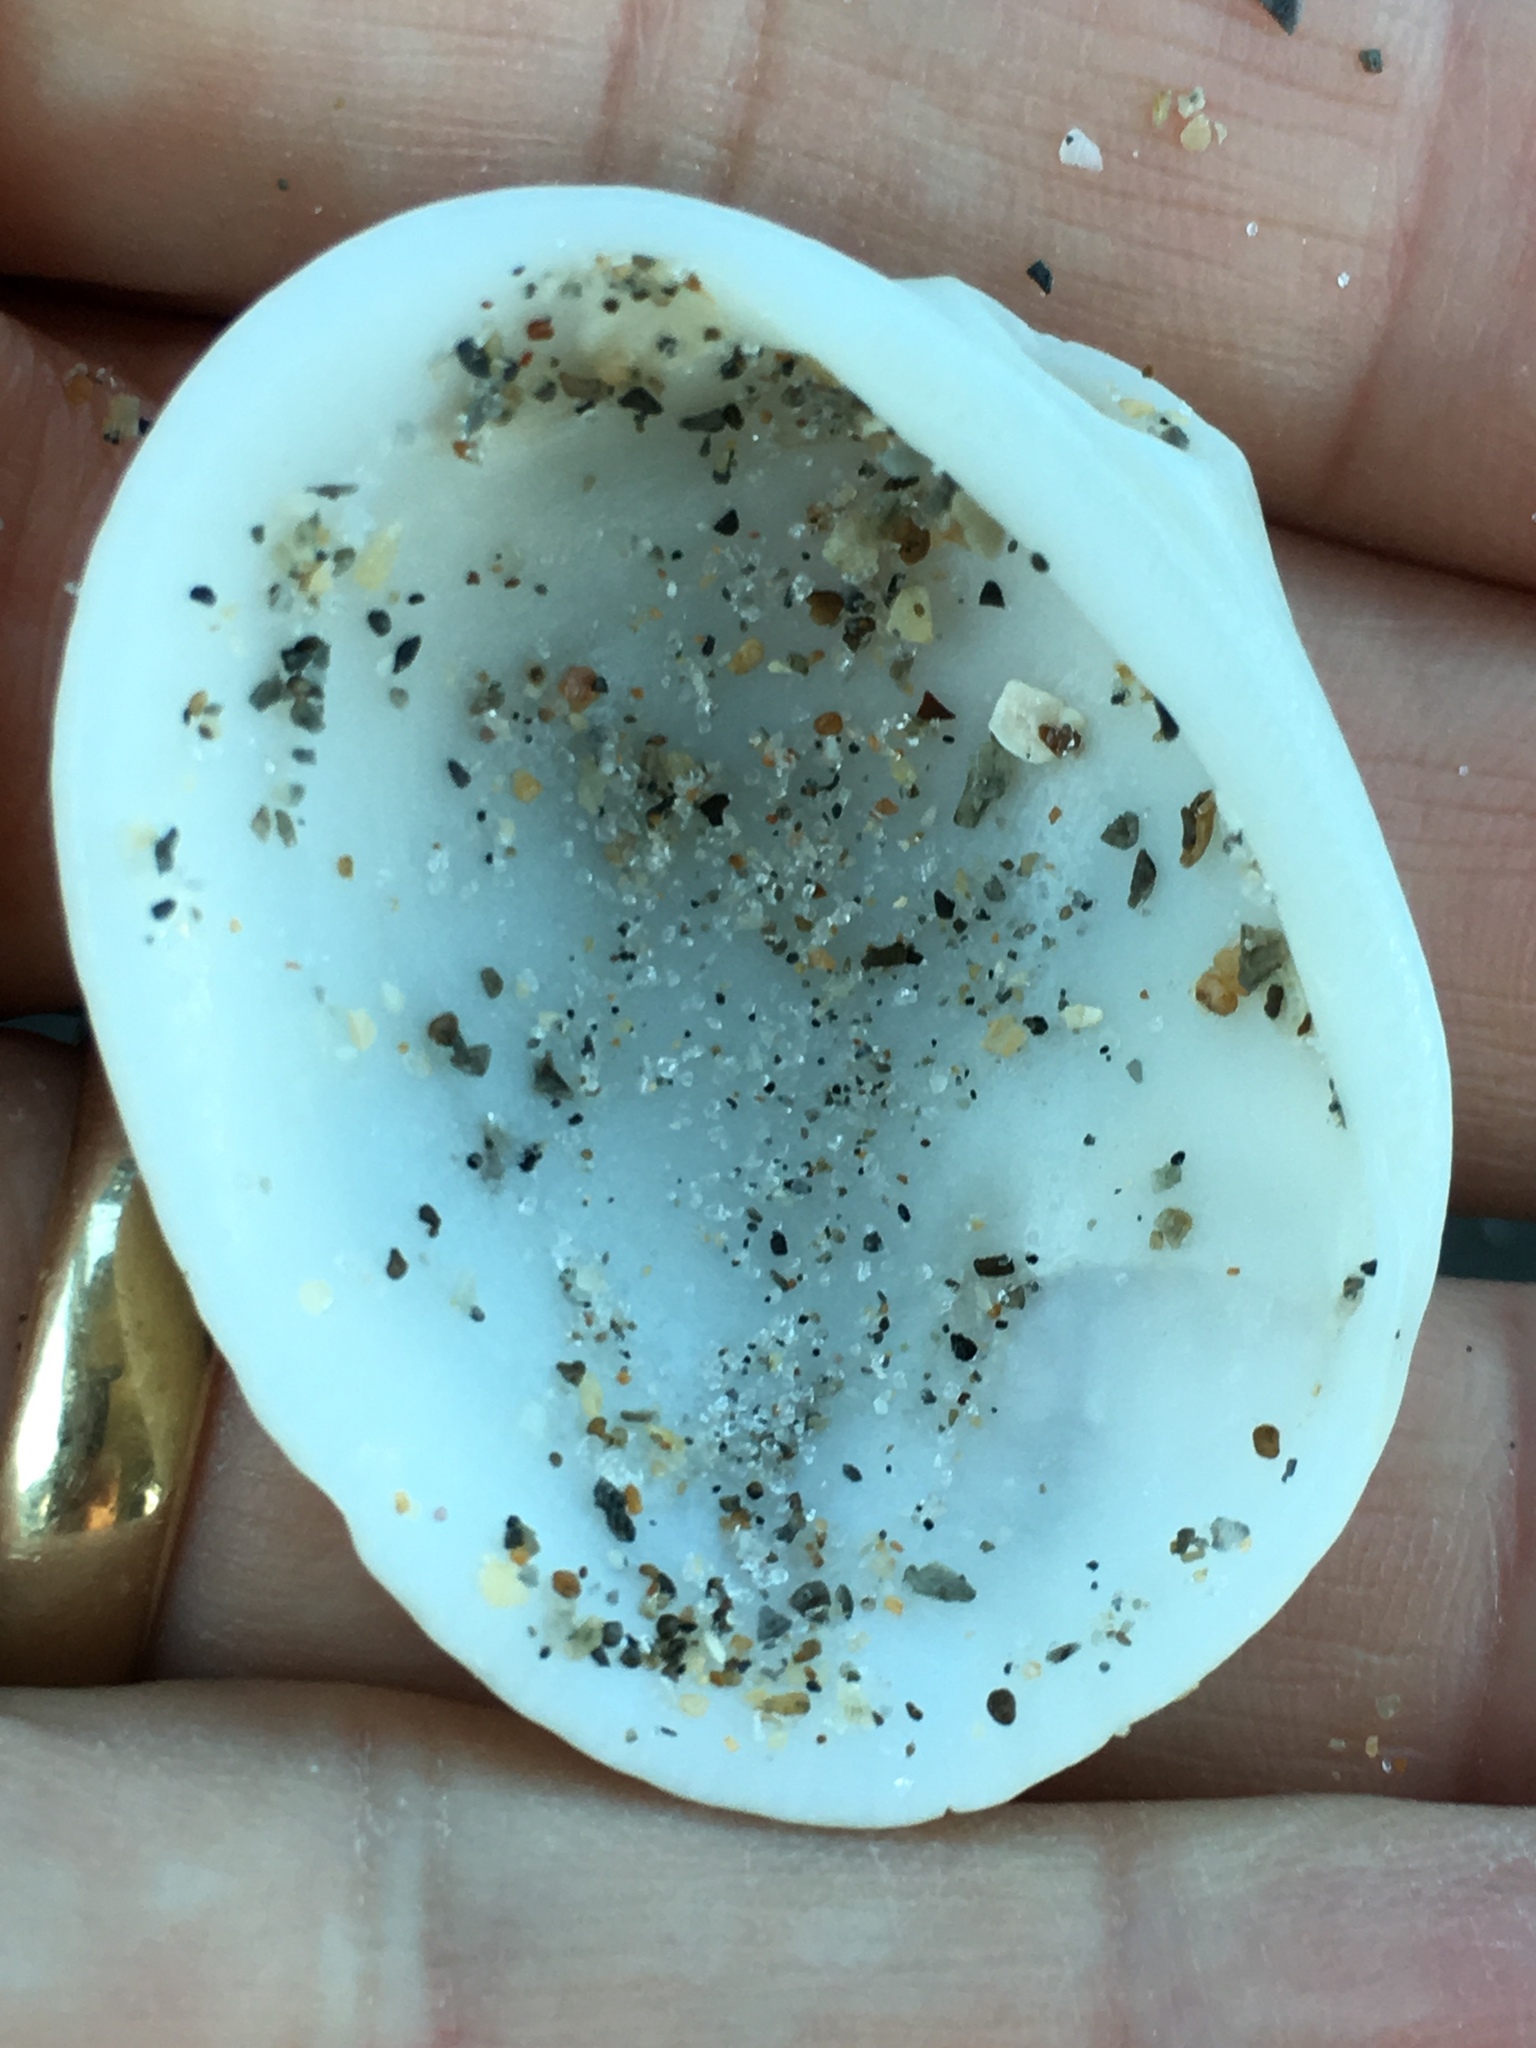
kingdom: Animalia
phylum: Mollusca
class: Bivalvia
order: Arcida
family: Arcidae
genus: Lunarca
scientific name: Lunarca ovalis
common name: Blood ark
